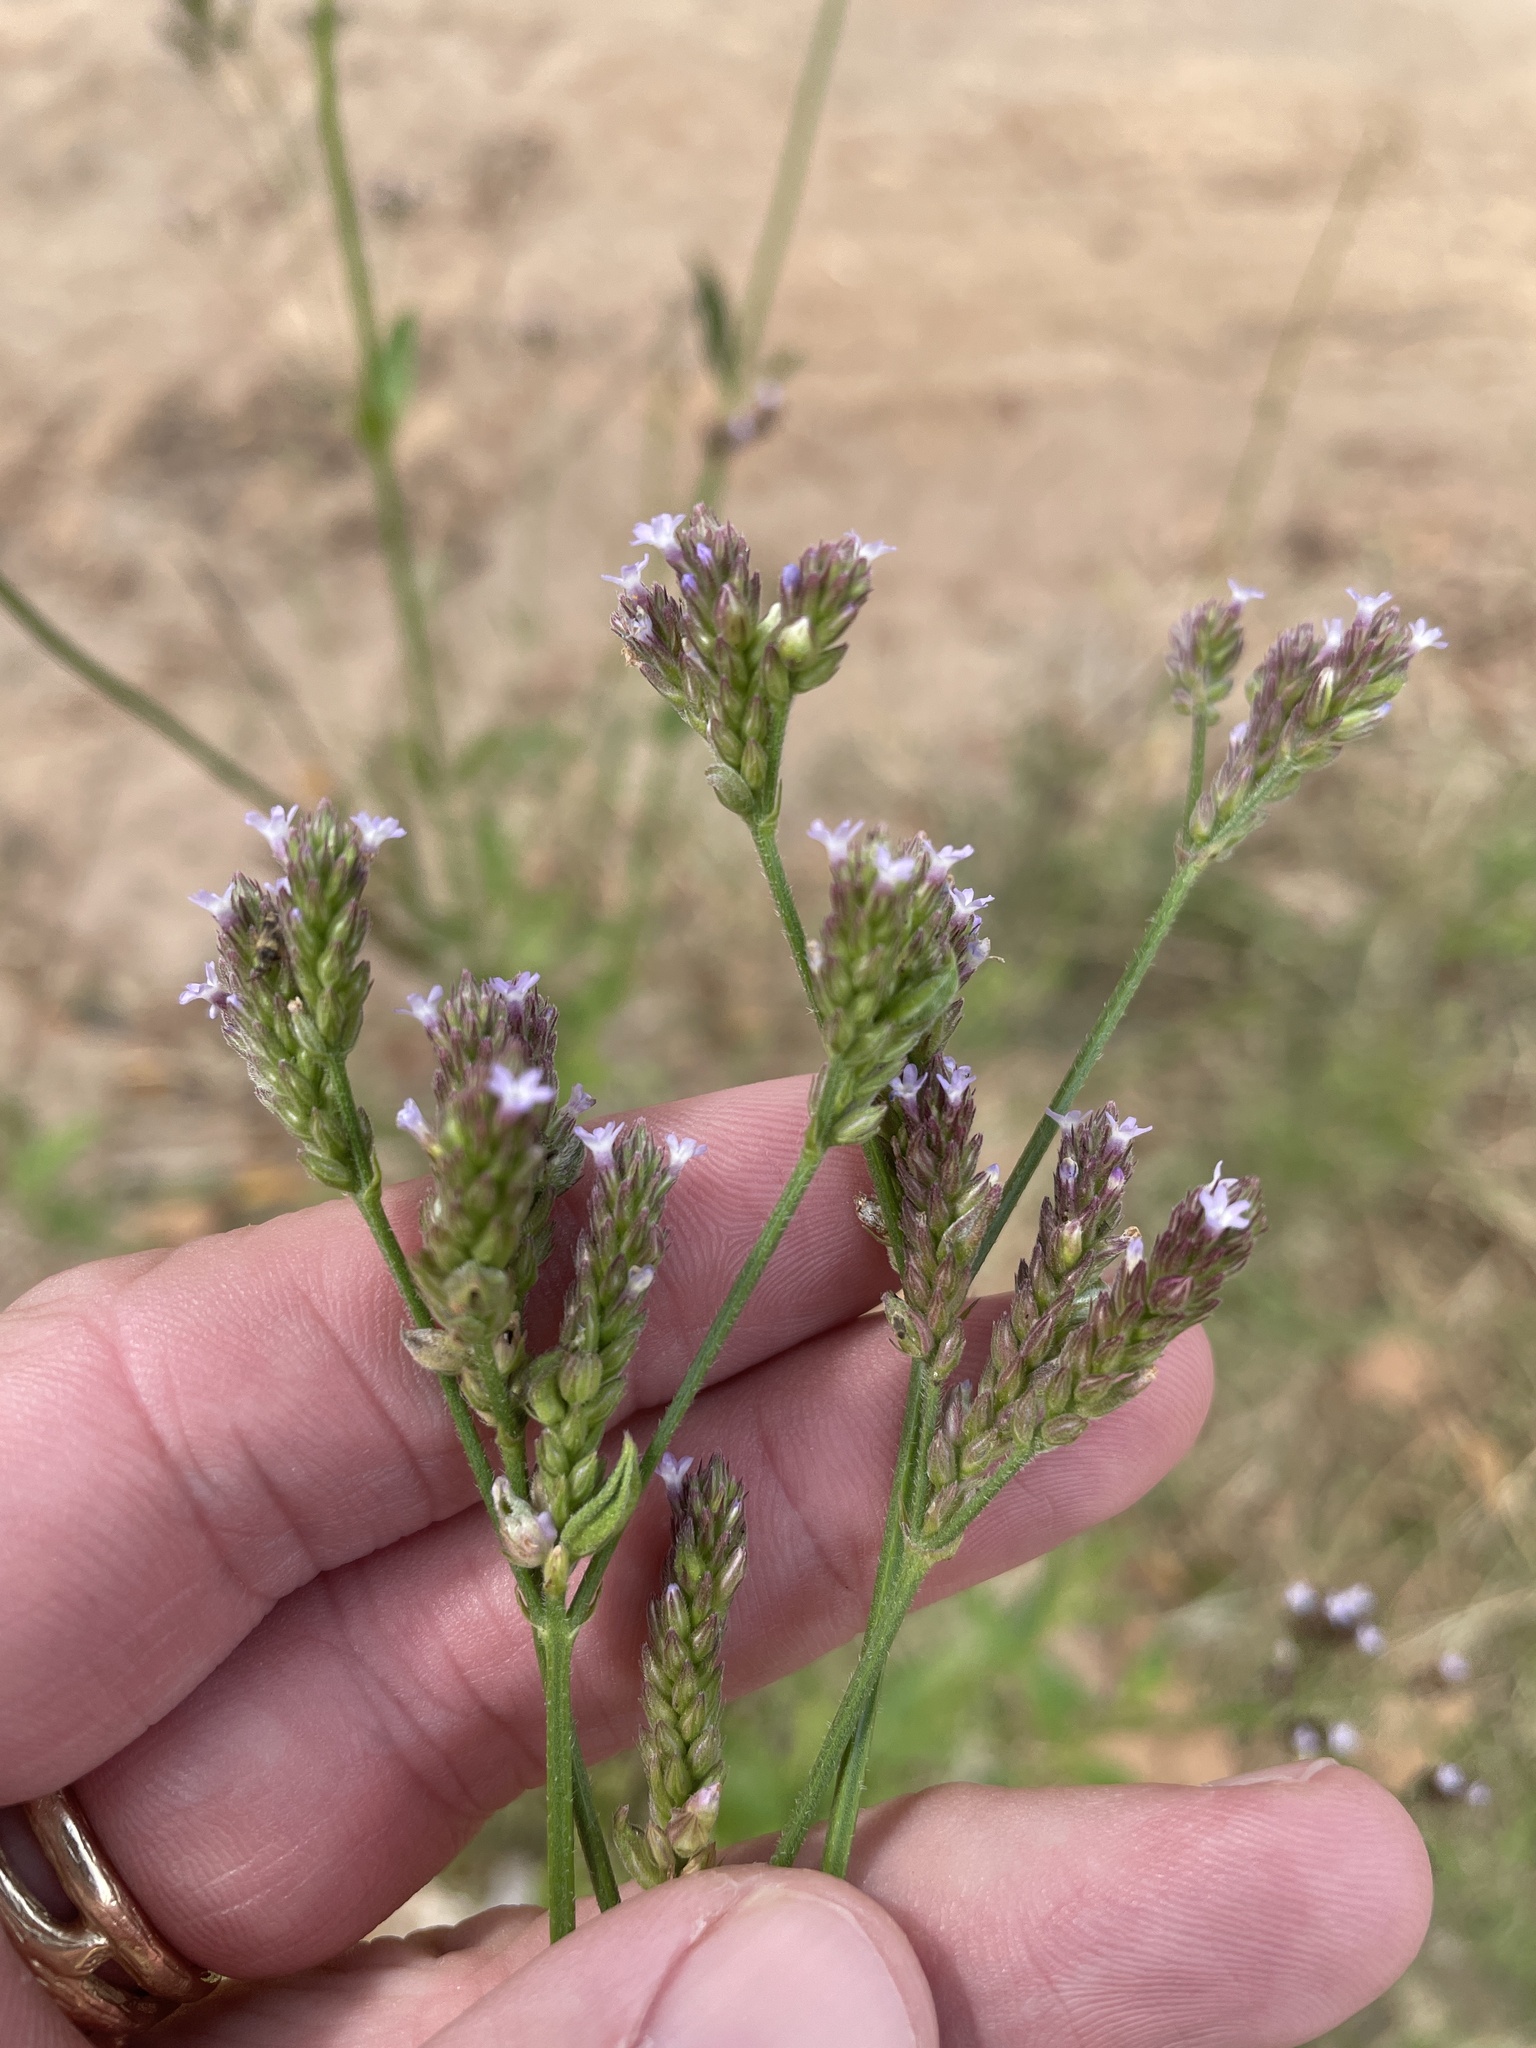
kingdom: Plantae
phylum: Tracheophyta
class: Magnoliopsida
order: Lamiales
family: Verbenaceae
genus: Verbena
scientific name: Verbena brasiliensis
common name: Brazilian vervain
